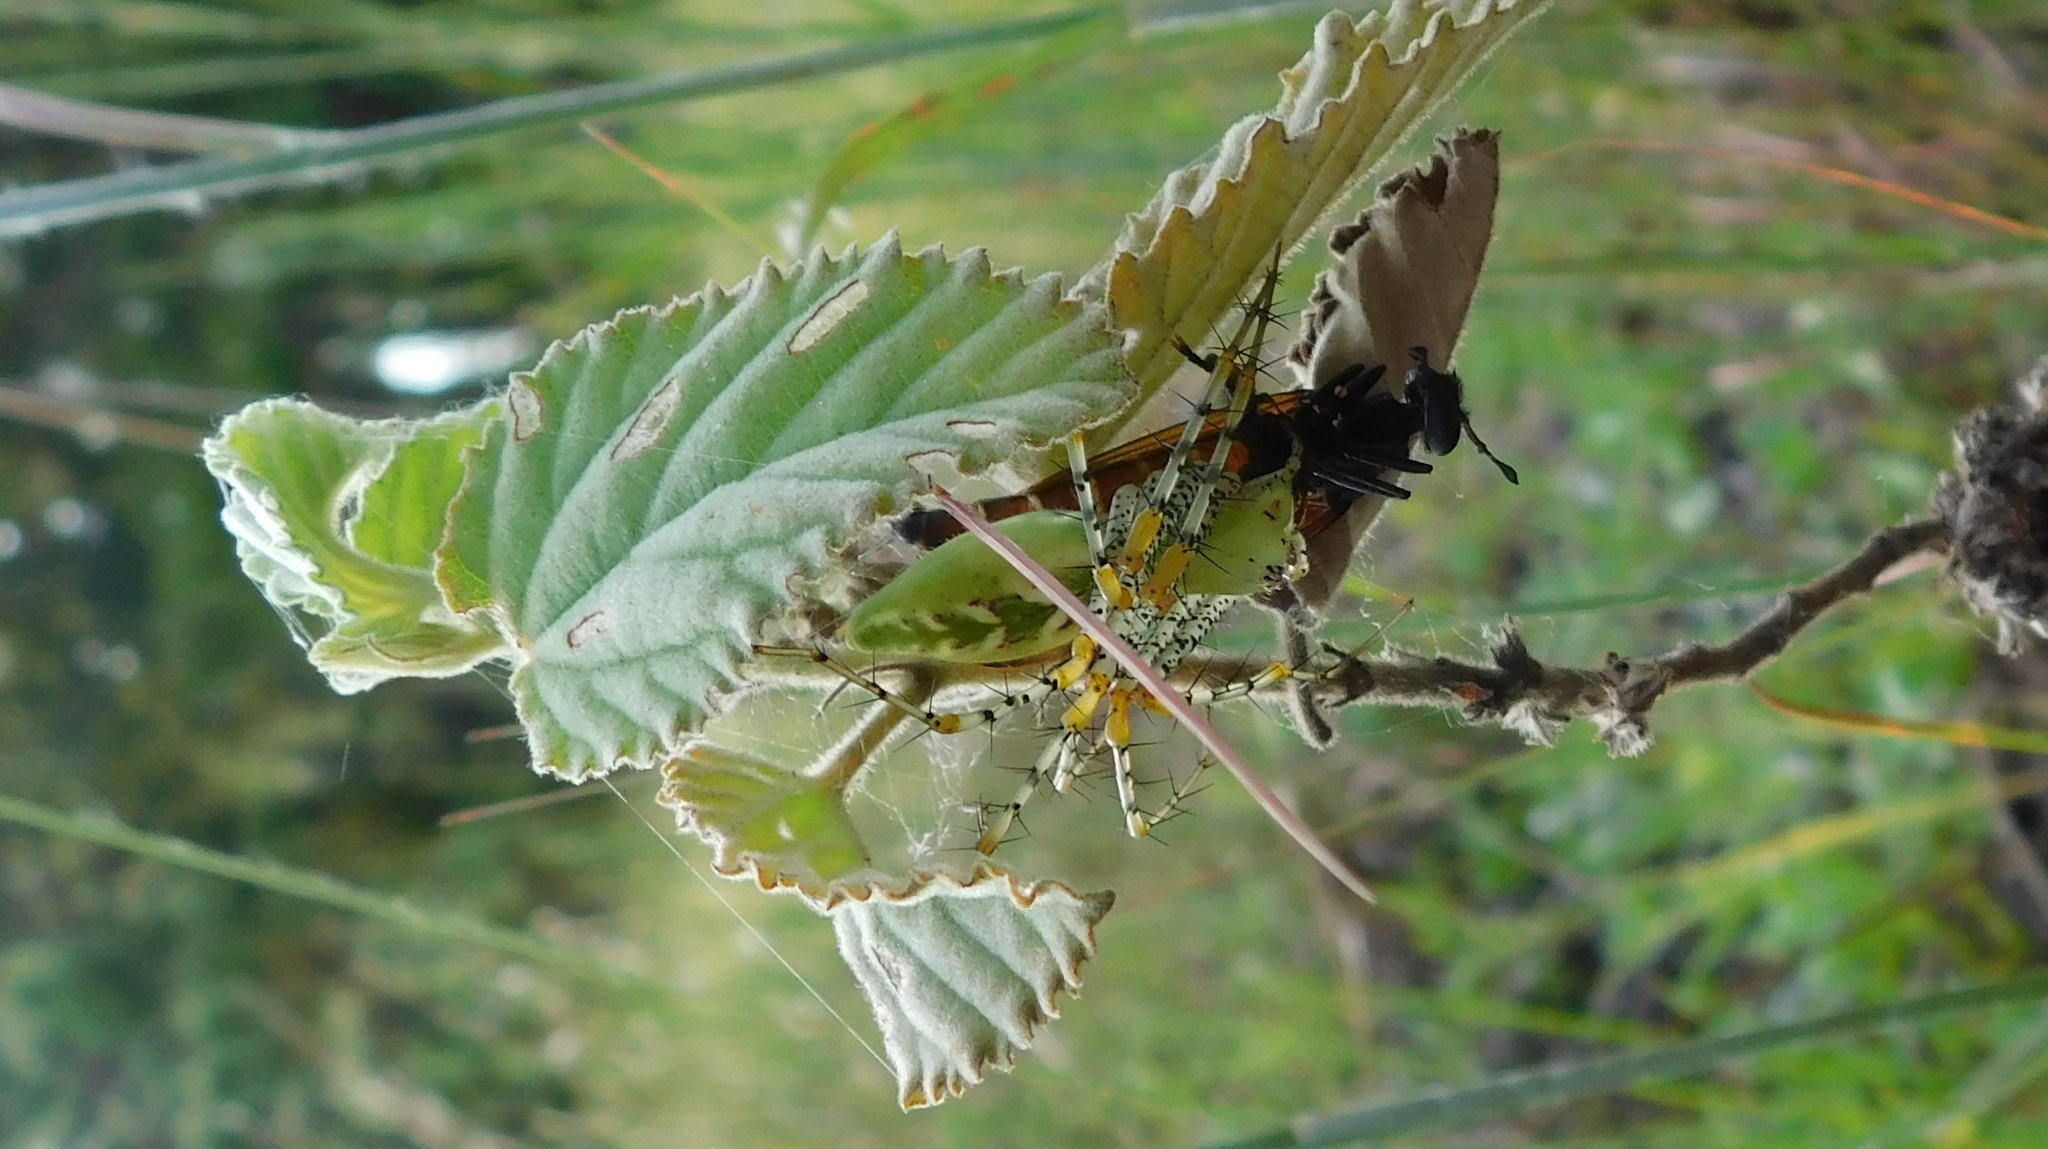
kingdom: Animalia
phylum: Arthropoda
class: Arachnida
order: Araneae
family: Oxyopidae
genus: Peucetia
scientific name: Peucetia viridans
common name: Lynx spiders
